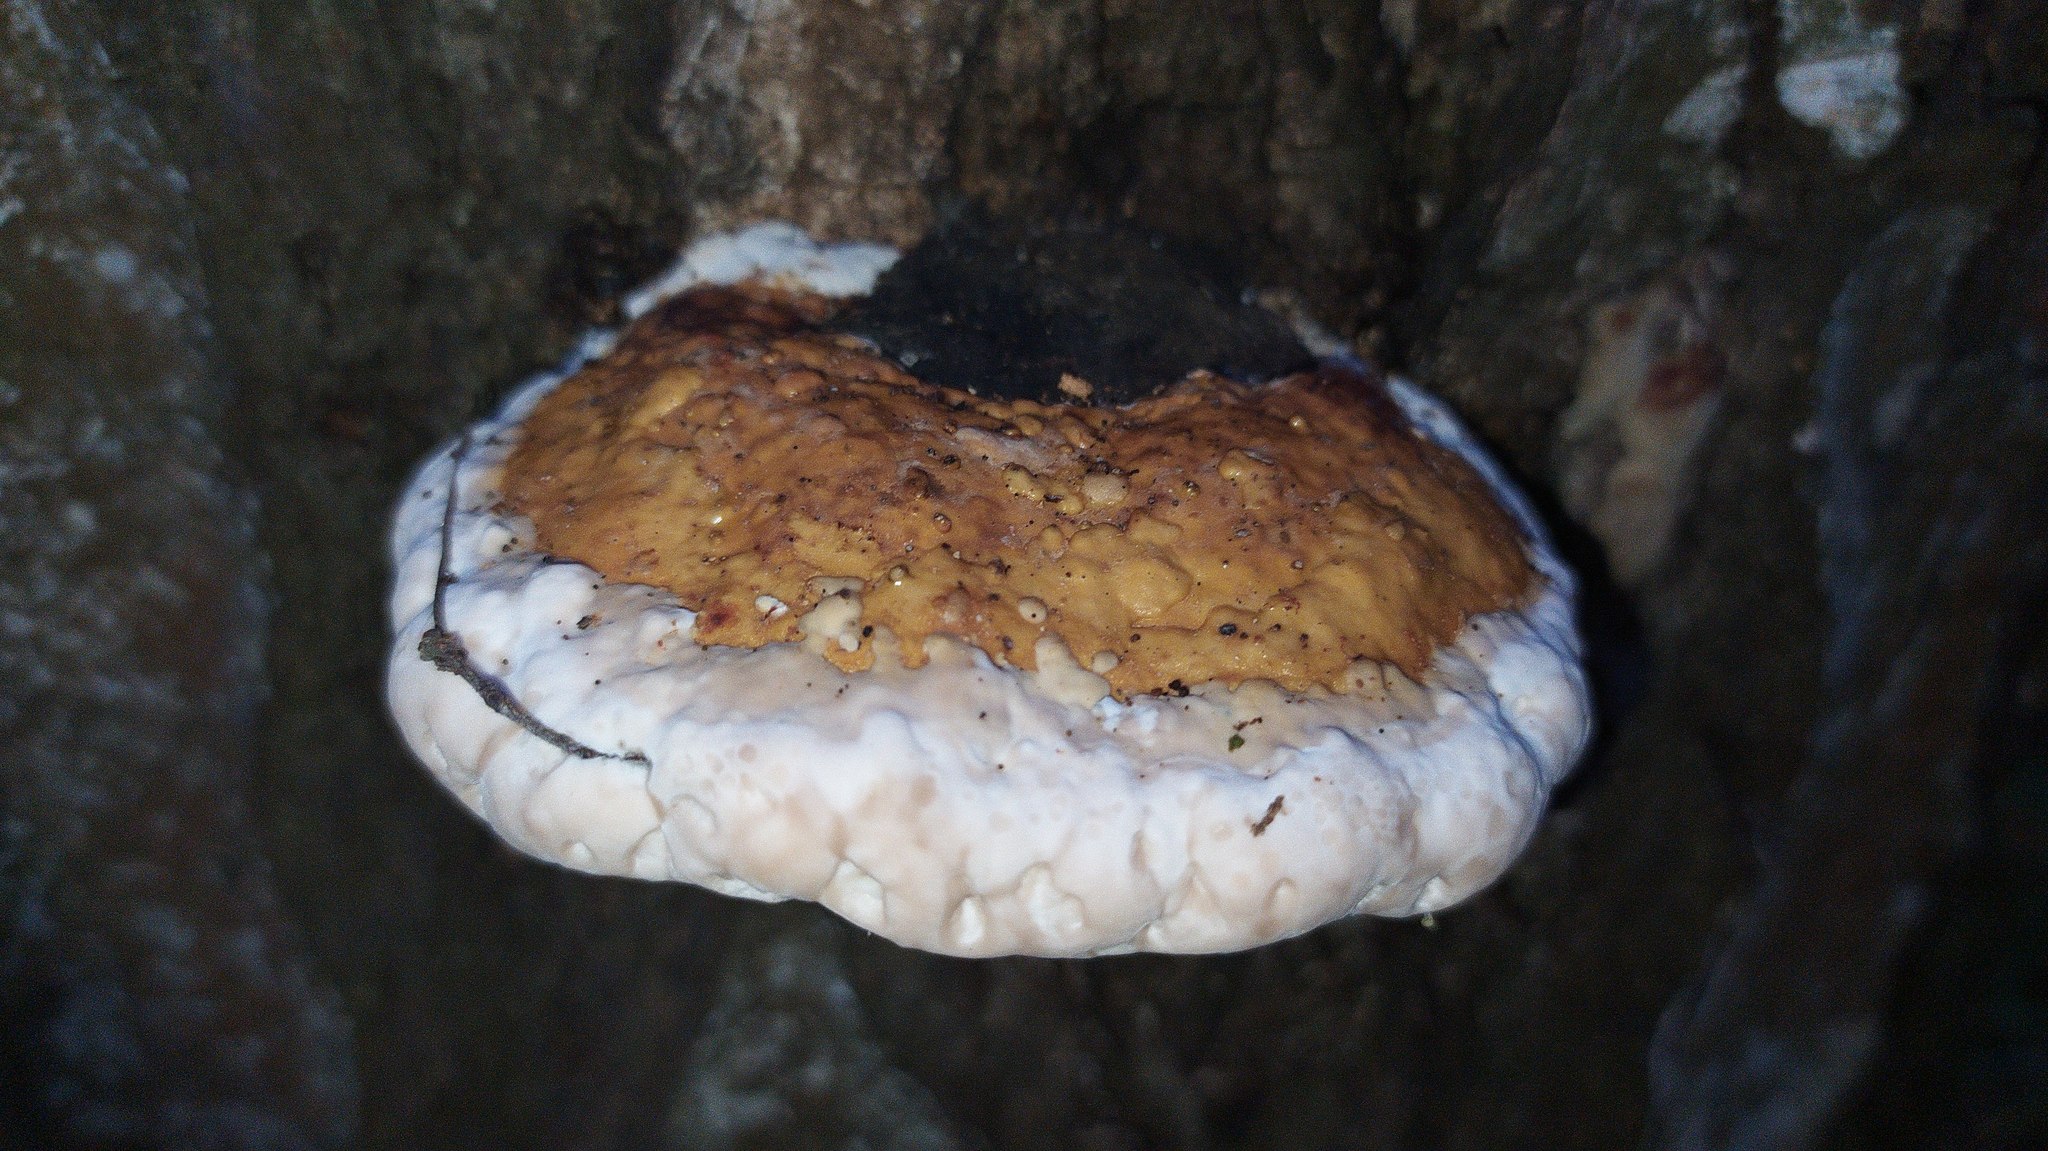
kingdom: Fungi
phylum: Basidiomycota
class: Agaricomycetes
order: Polyporales
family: Fomitopsidaceae
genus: Fomitopsis
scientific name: Fomitopsis pinicola
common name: Red-belted bracket
